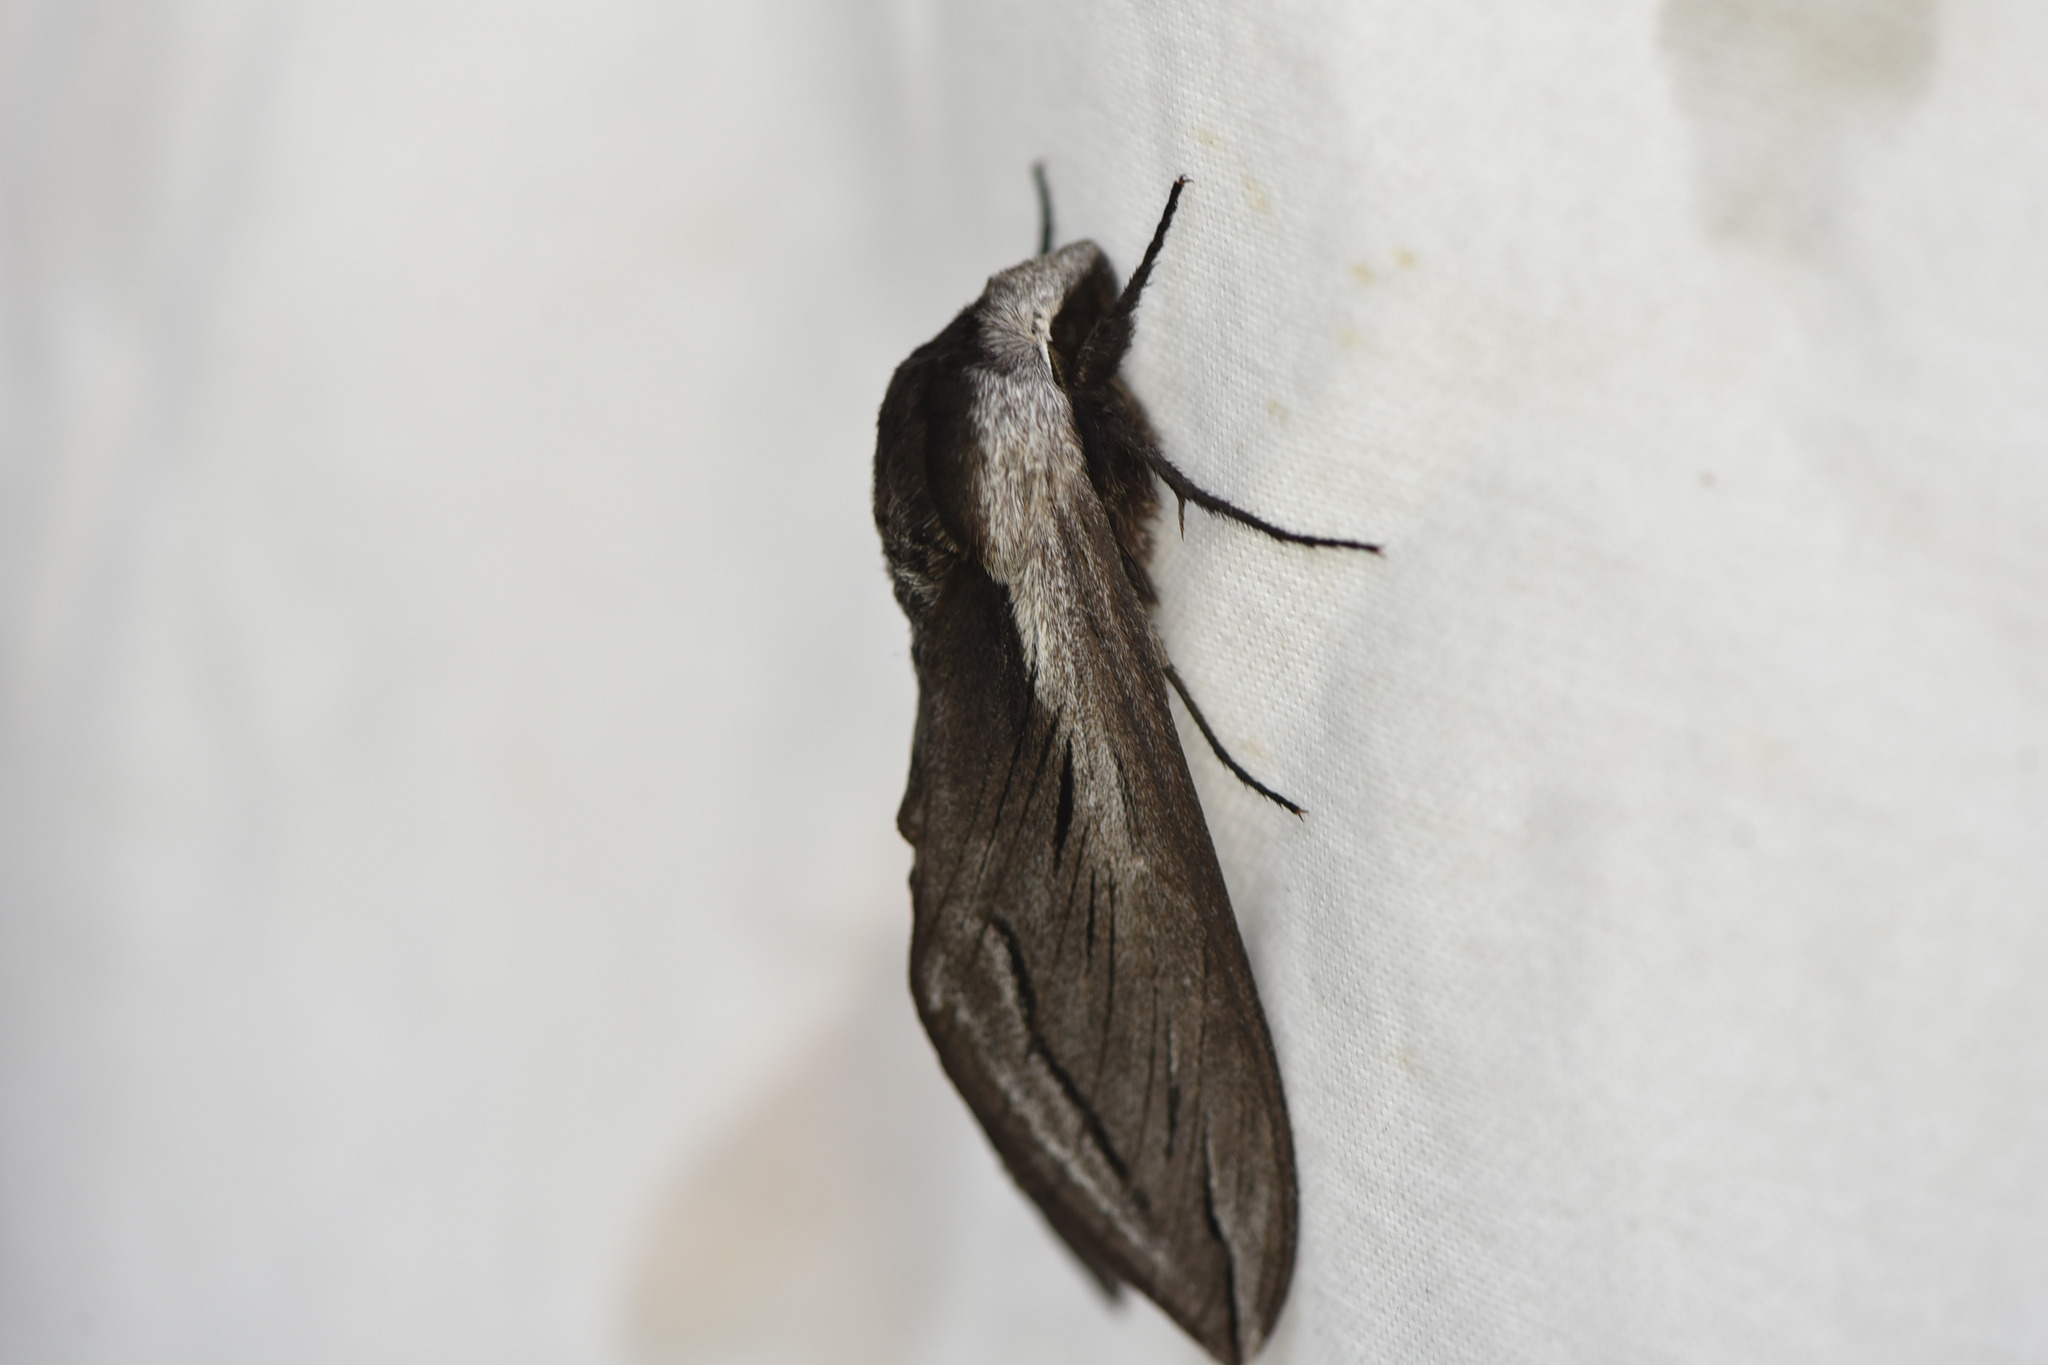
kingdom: Animalia
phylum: Arthropoda
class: Insecta
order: Lepidoptera
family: Sphingidae
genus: Sphinx
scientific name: Sphinx vashti
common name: Snowberry sphinx
